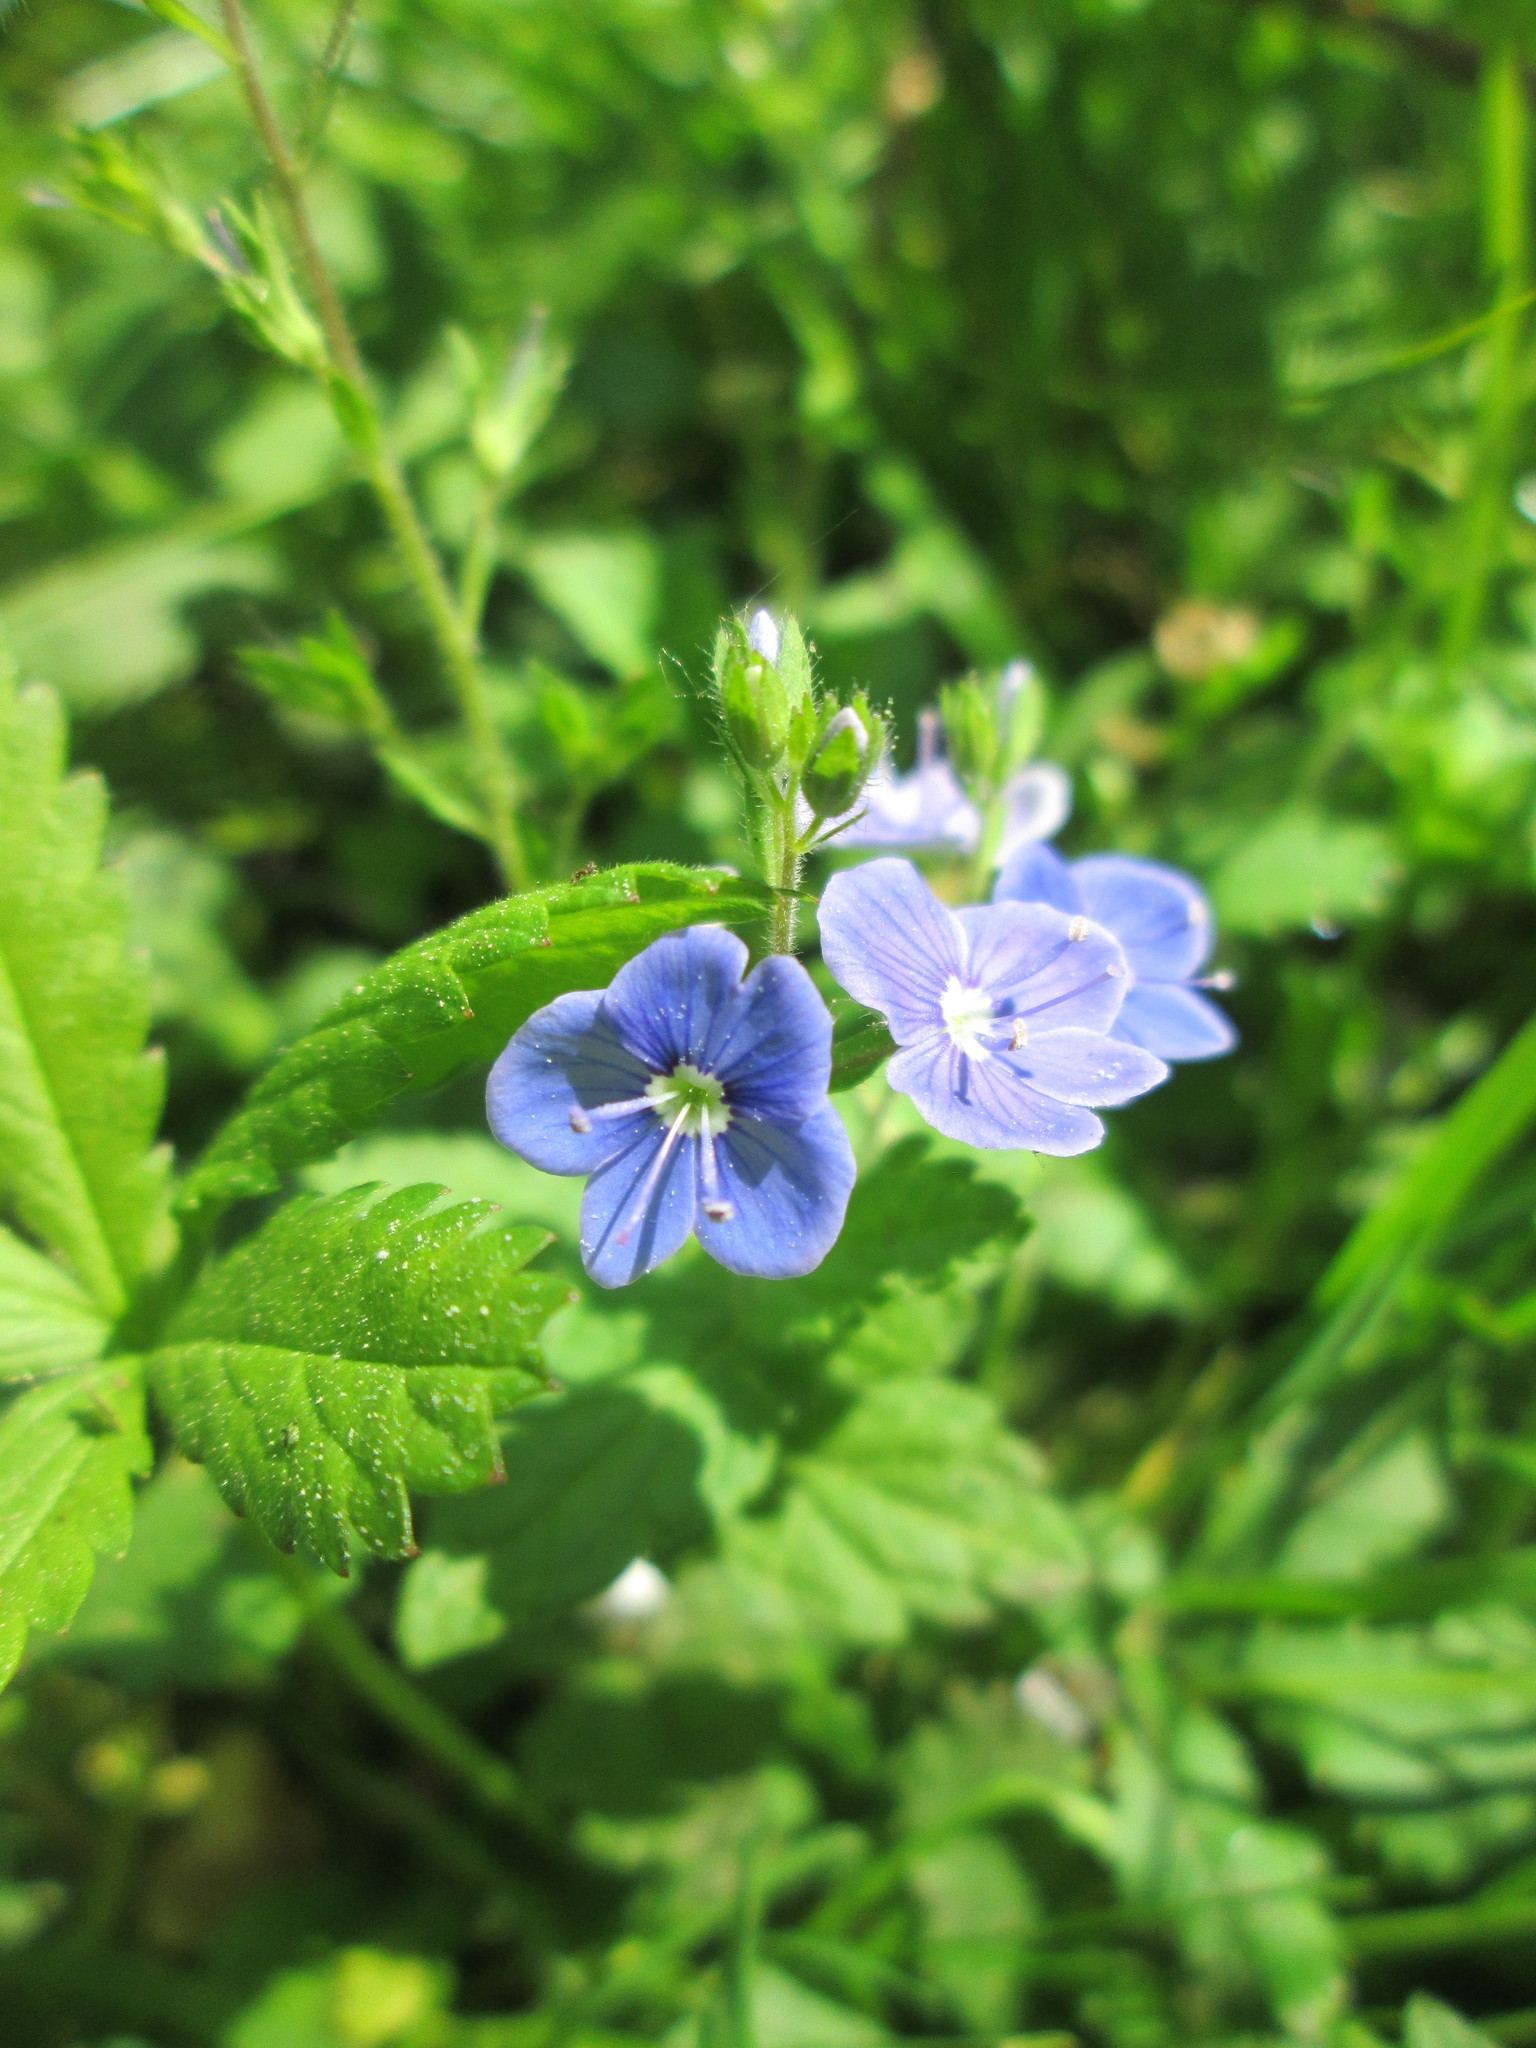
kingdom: Plantae
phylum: Tracheophyta
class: Magnoliopsida
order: Lamiales
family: Plantaginaceae
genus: Veronica
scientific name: Veronica chamaedrys
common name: Germander speedwell
